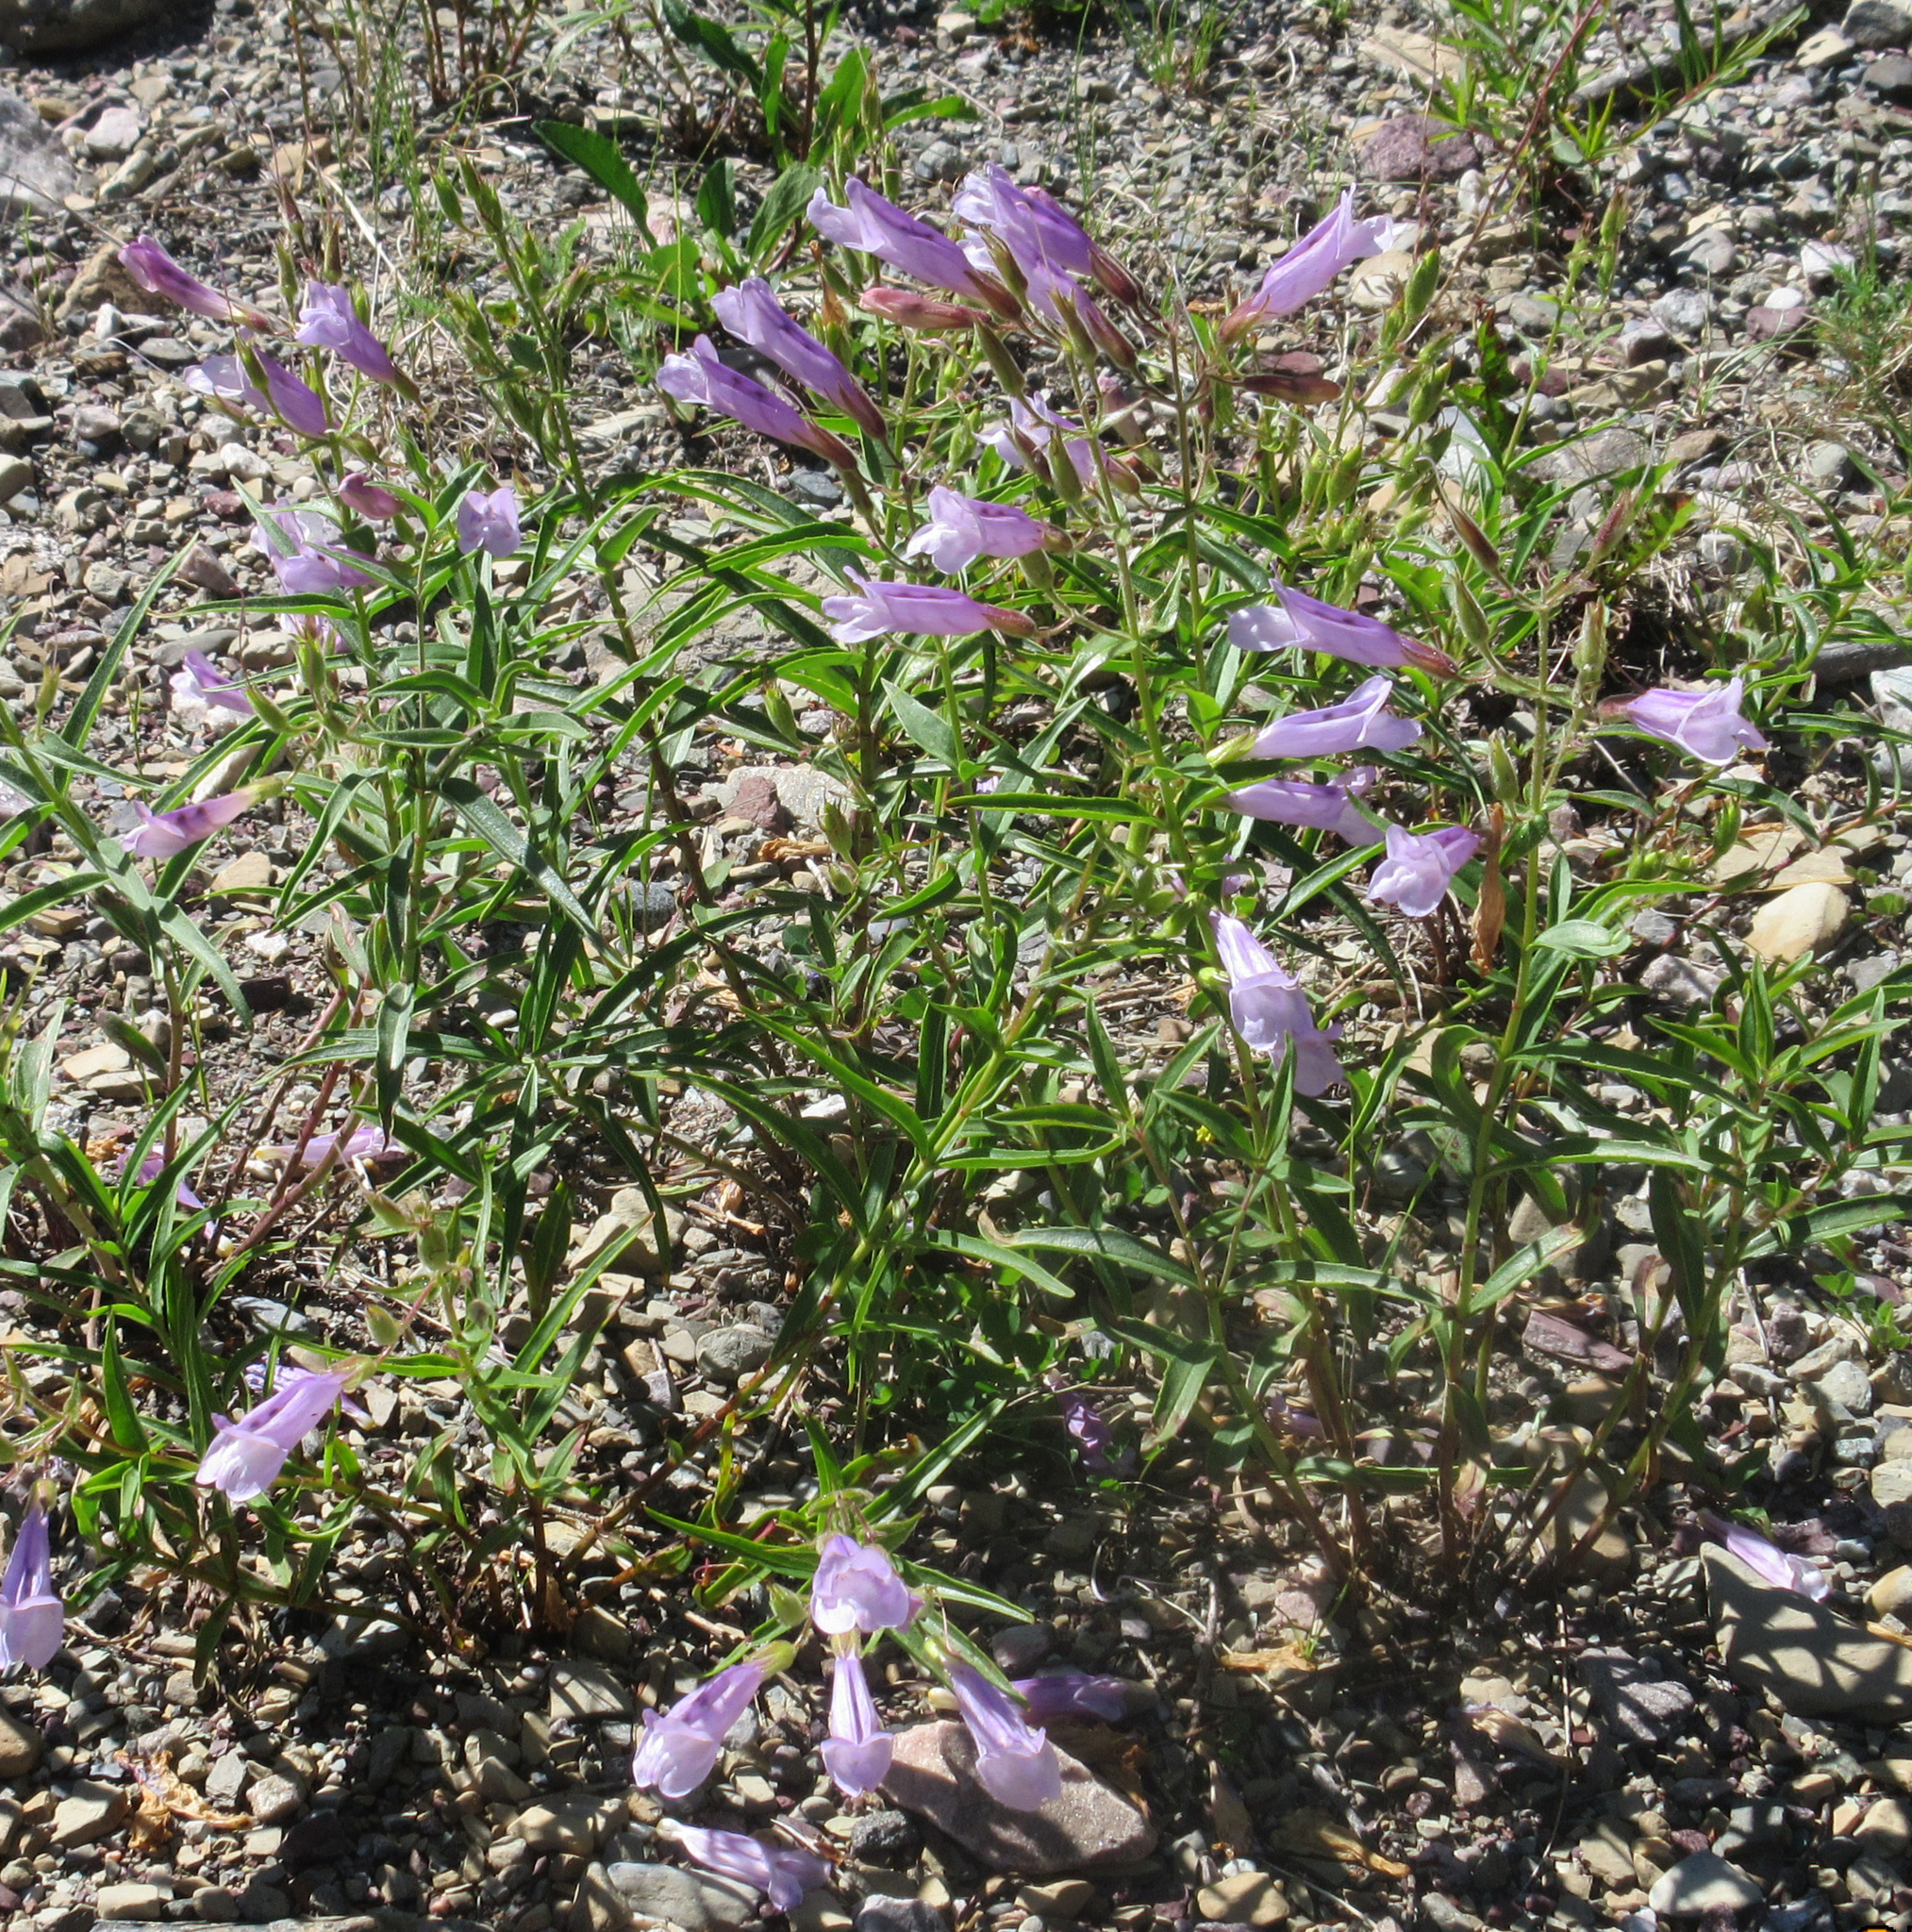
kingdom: Plantae
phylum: Tracheophyta
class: Magnoliopsida
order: Lamiales
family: Plantaginaceae
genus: Penstemon
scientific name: Penstemon lyalli
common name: Lyall's beardtongue
